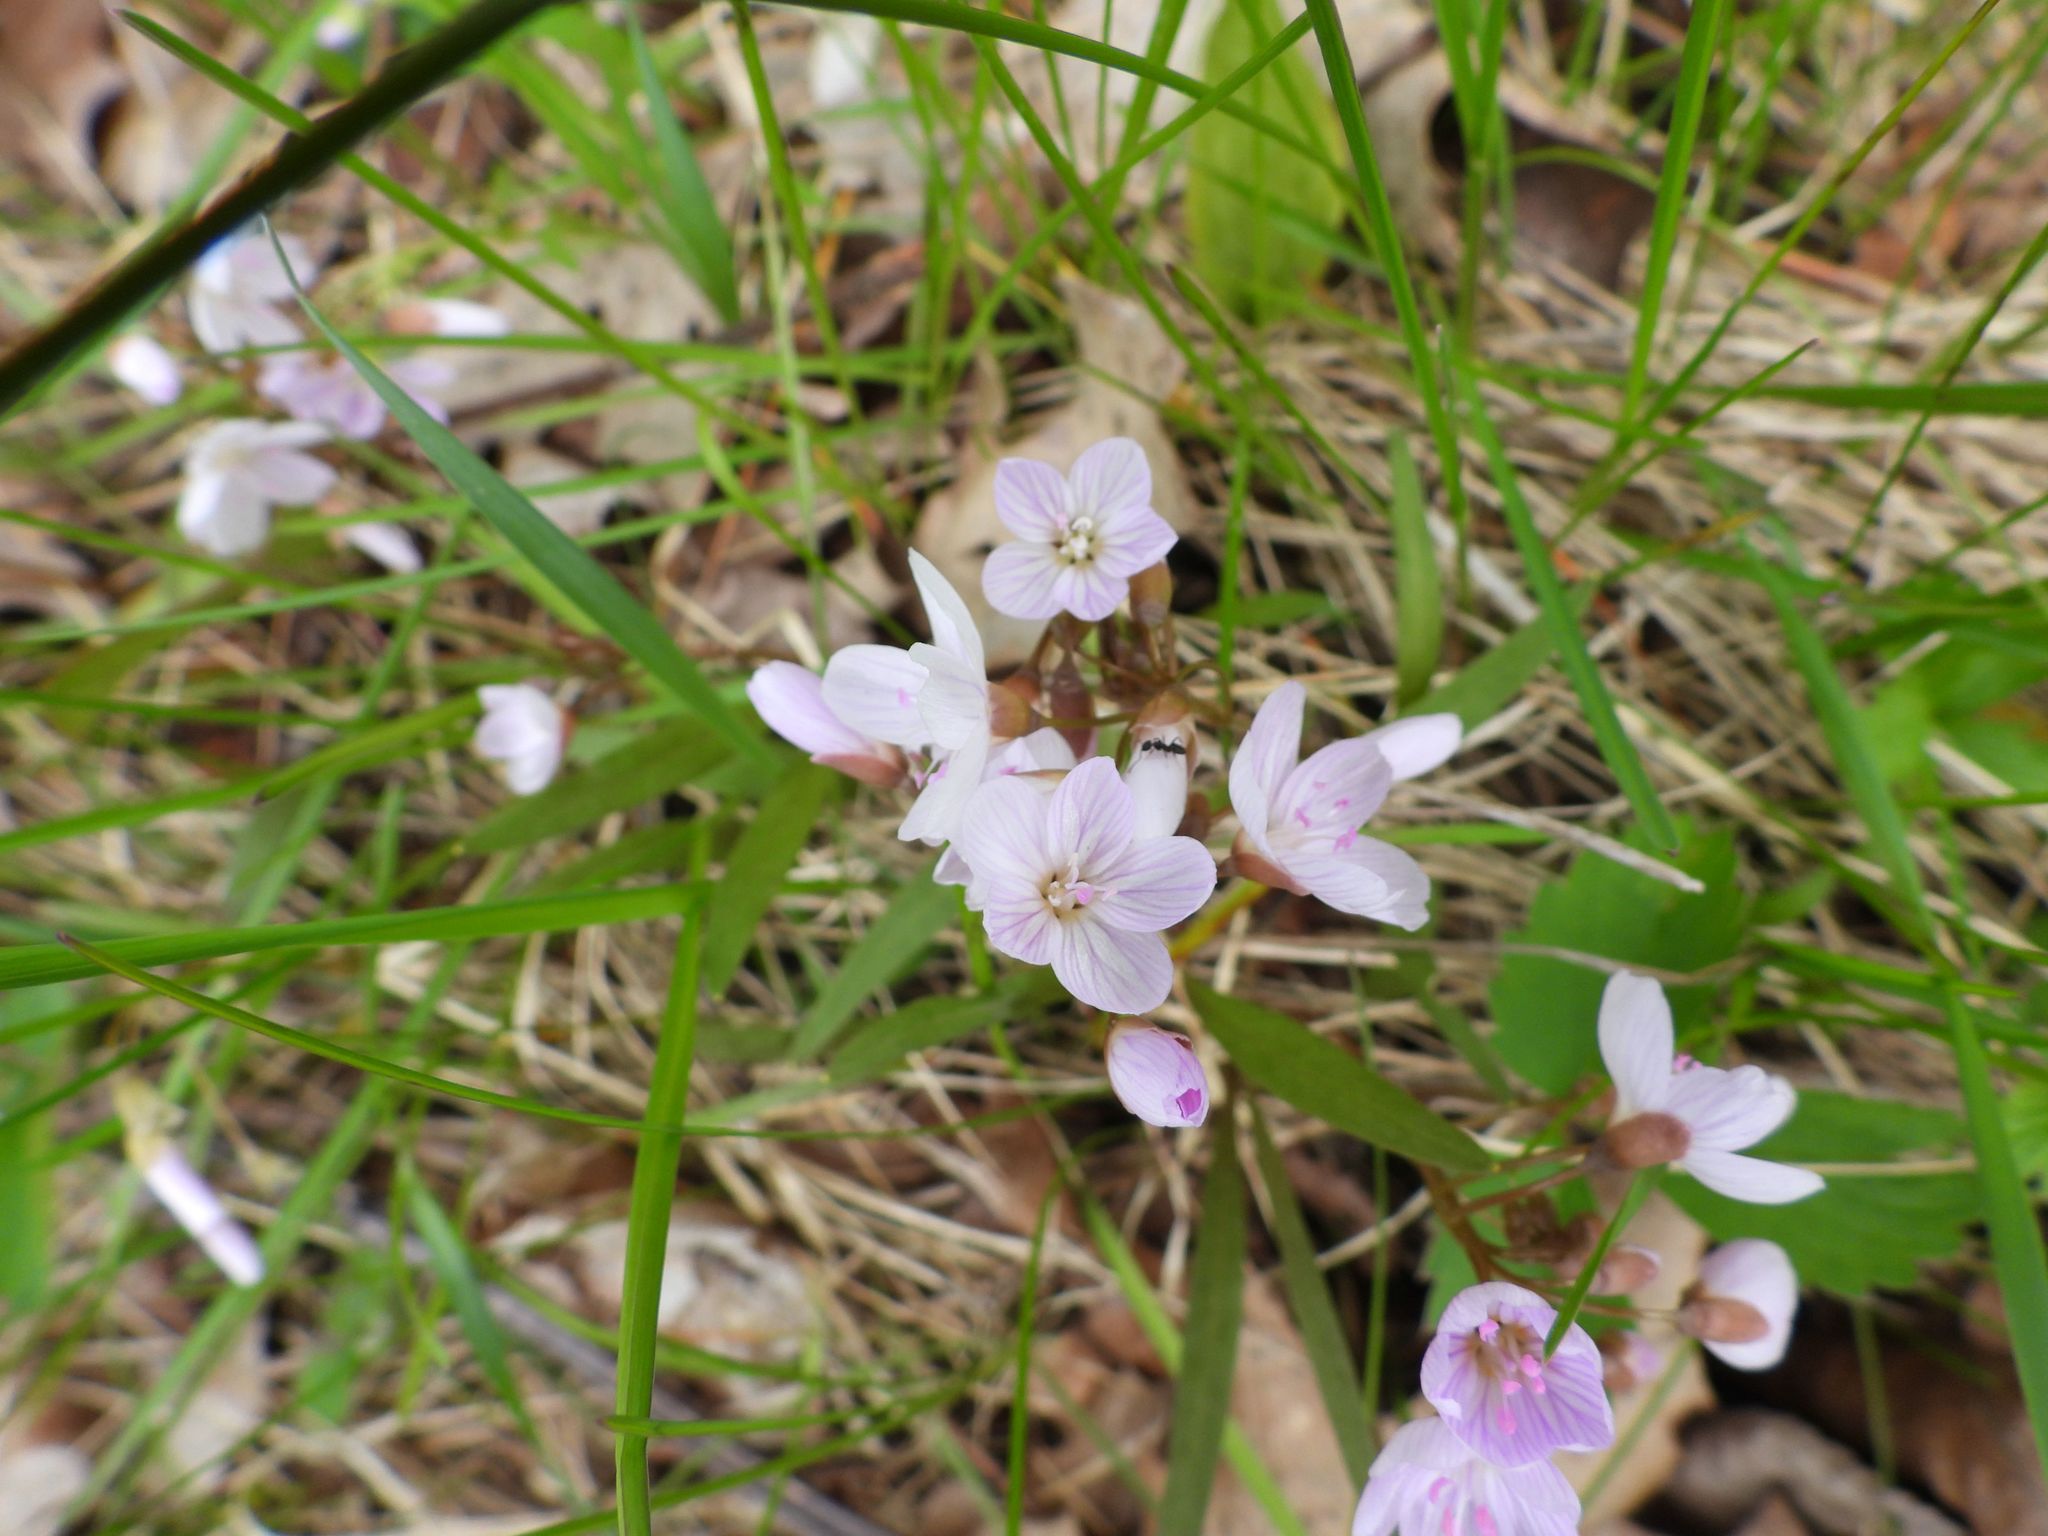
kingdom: Plantae
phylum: Tracheophyta
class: Magnoliopsida
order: Caryophyllales
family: Montiaceae
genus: Claytonia
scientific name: Claytonia virginica
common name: Virginia springbeauty
